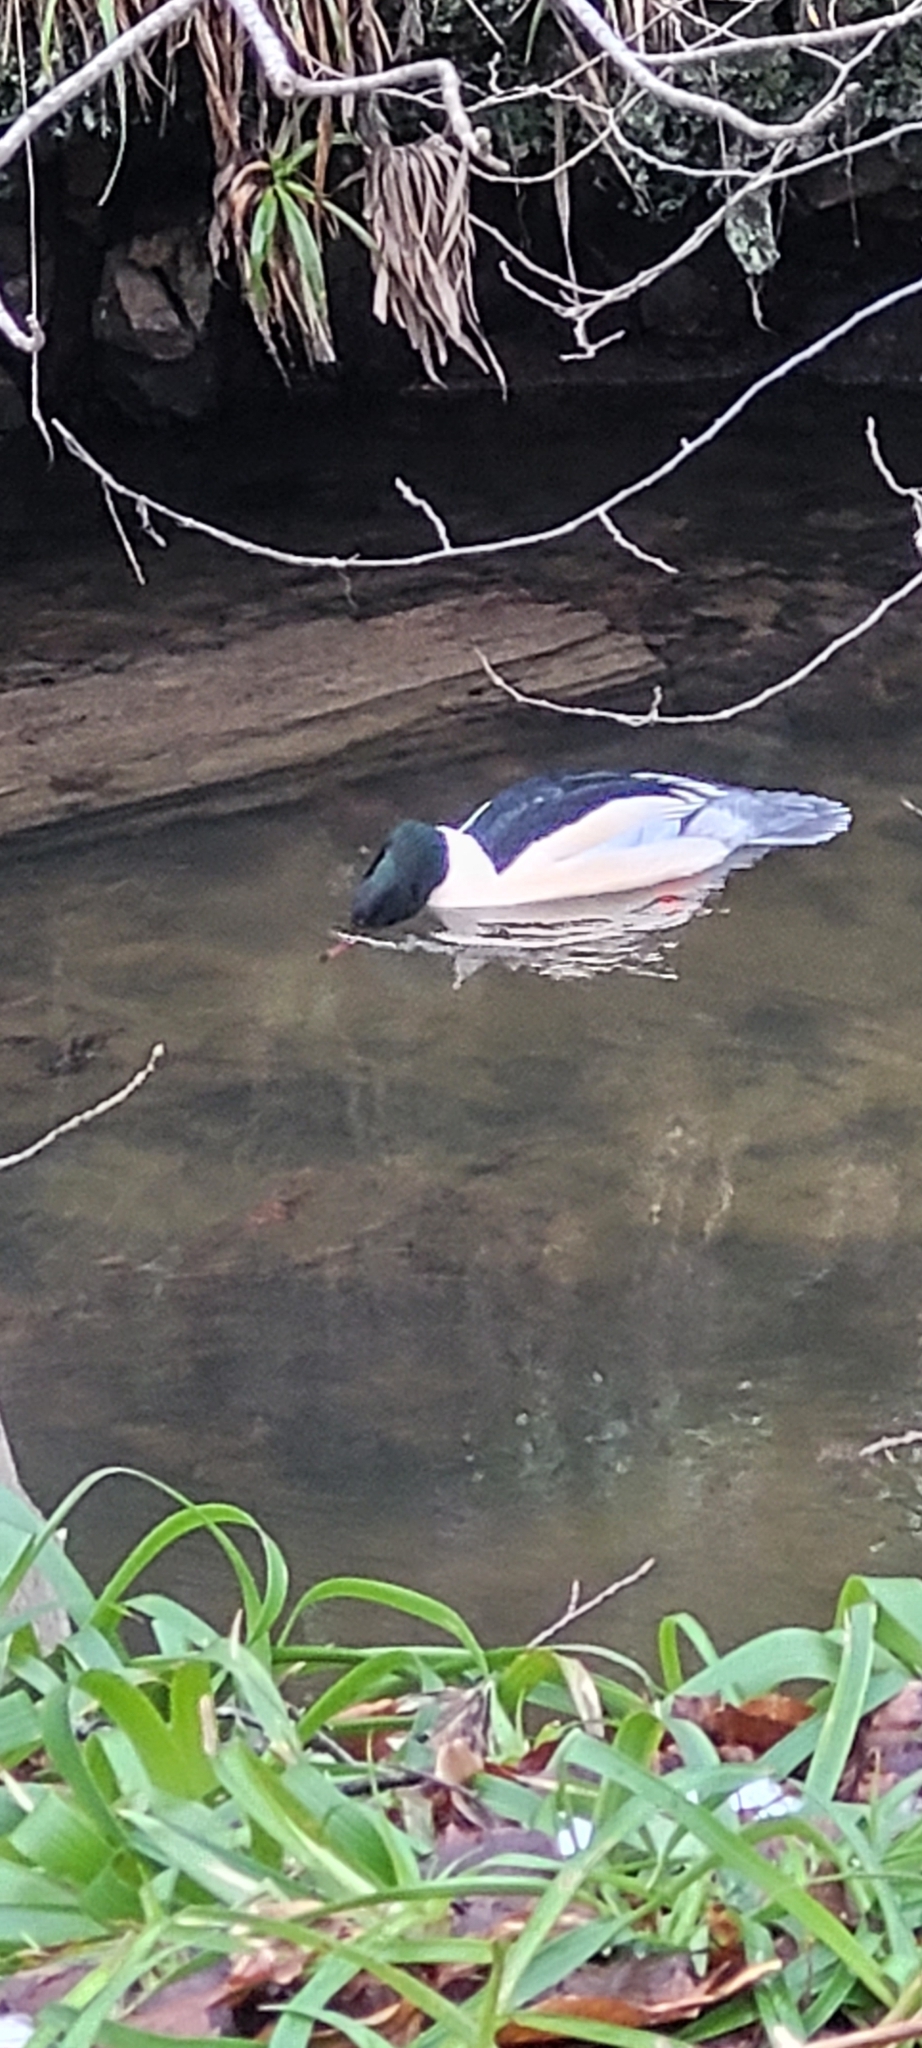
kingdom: Animalia
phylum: Chordata
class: Aves
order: Anseriformes
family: Anatidae
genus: Mergus
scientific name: Mergus merganser
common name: Common merganser
